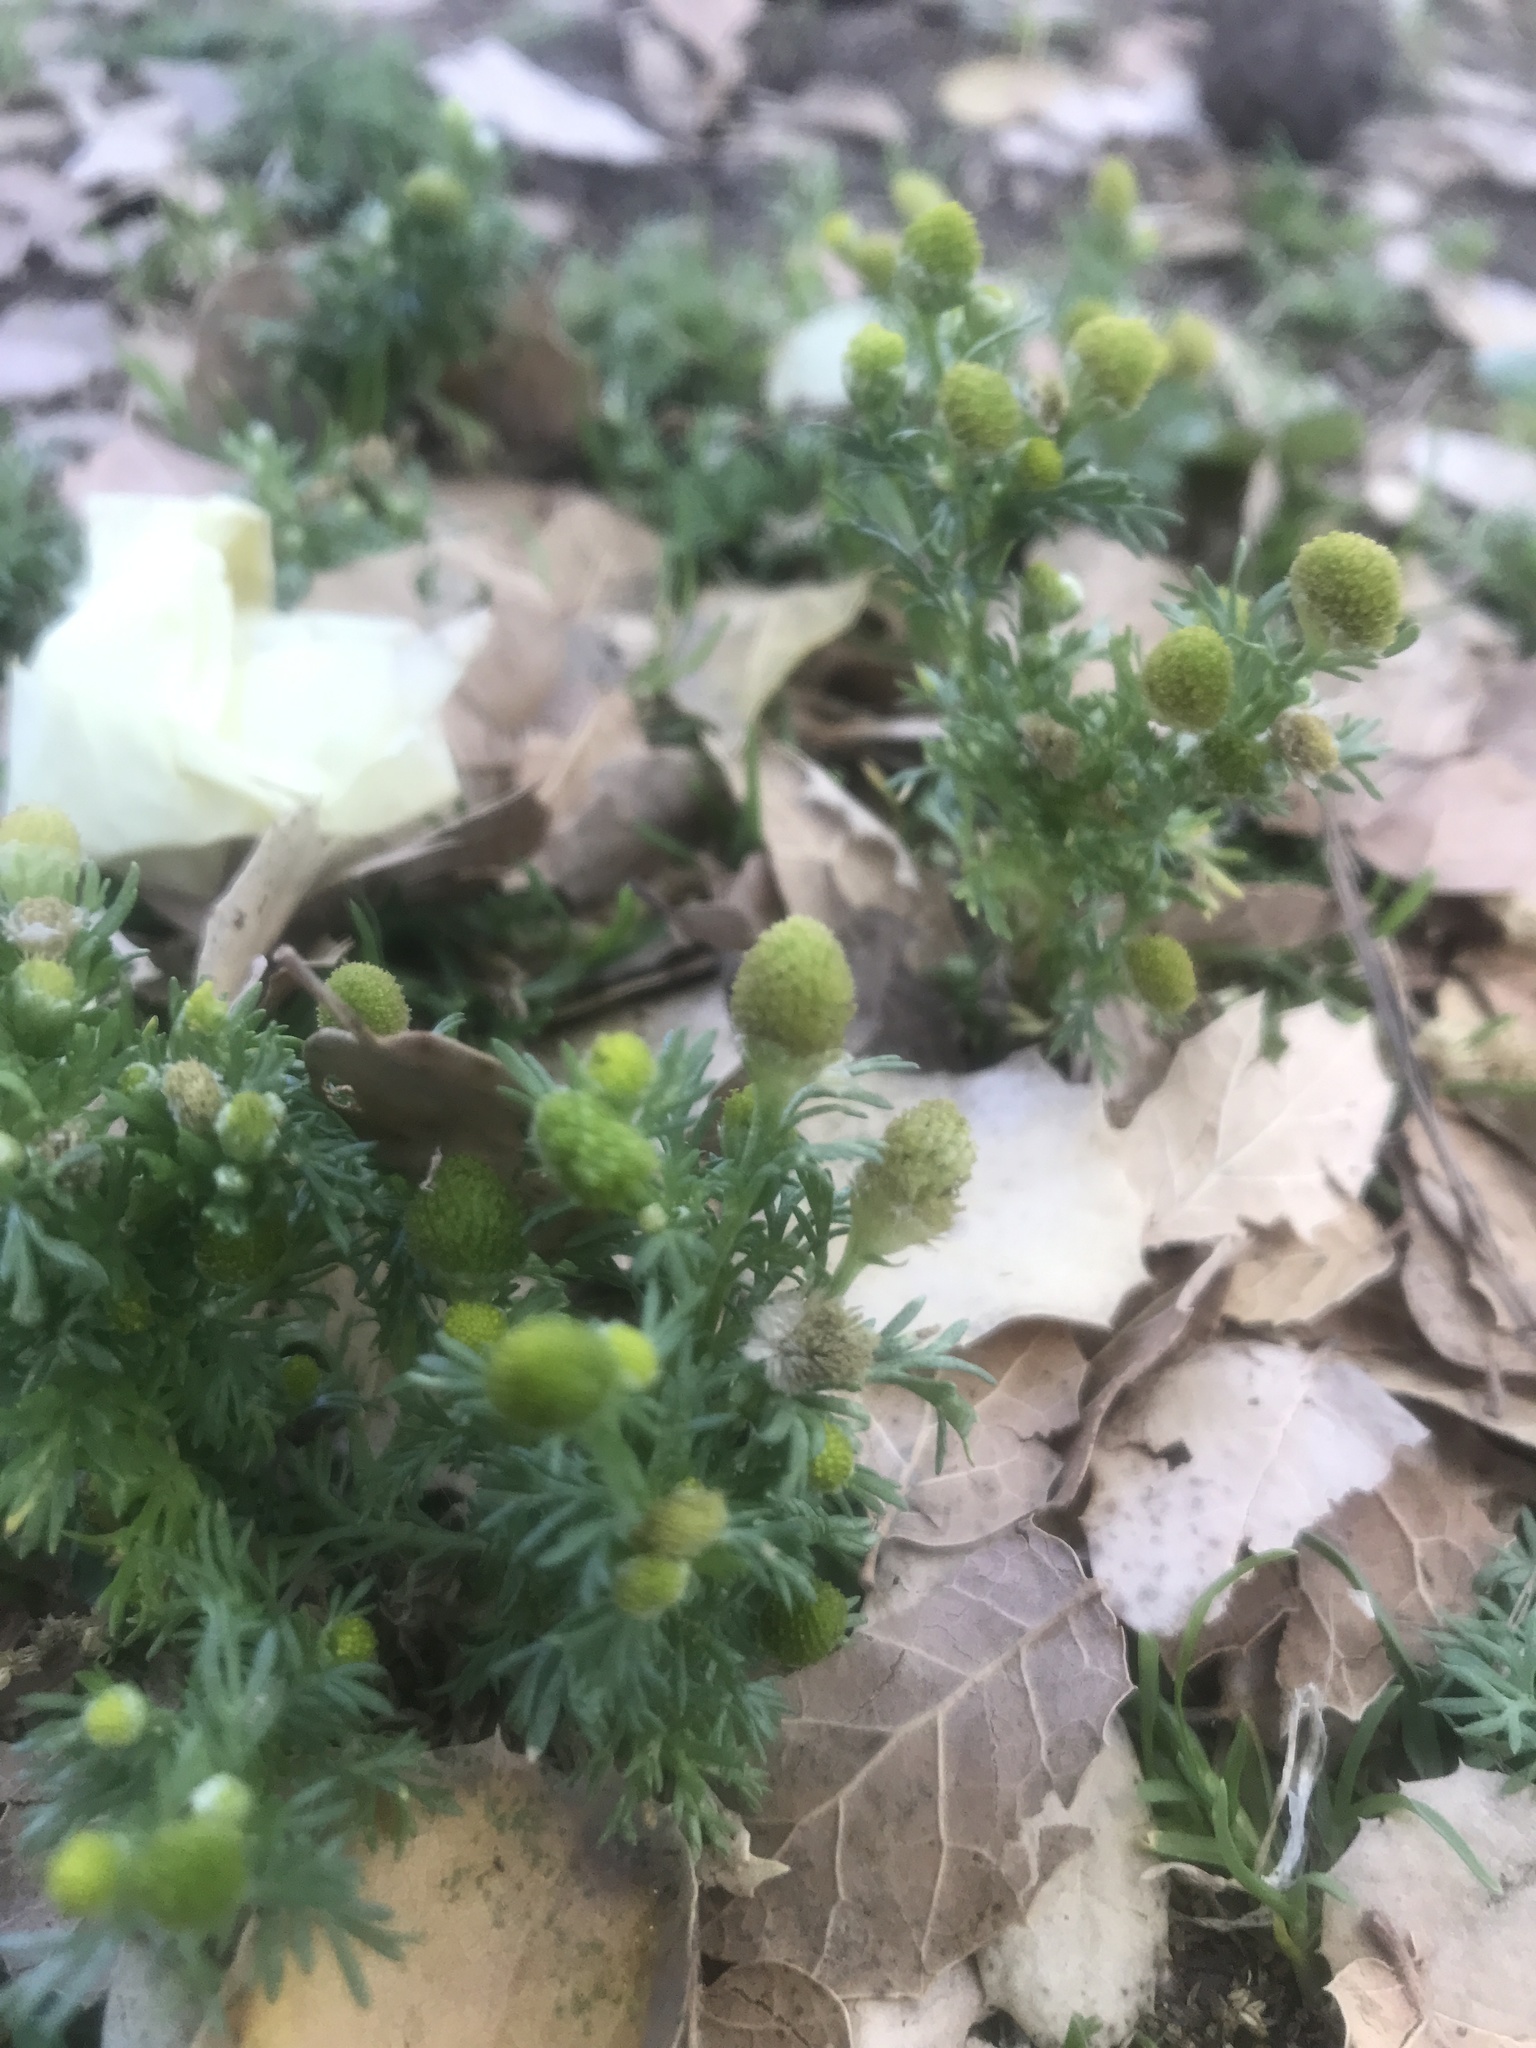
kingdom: Plantae
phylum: Tracheophyta
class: Magnoliopsida
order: Asterales
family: Asteraceae
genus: Matricaria
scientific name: Matricaria discoidea
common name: Disc mayweed
